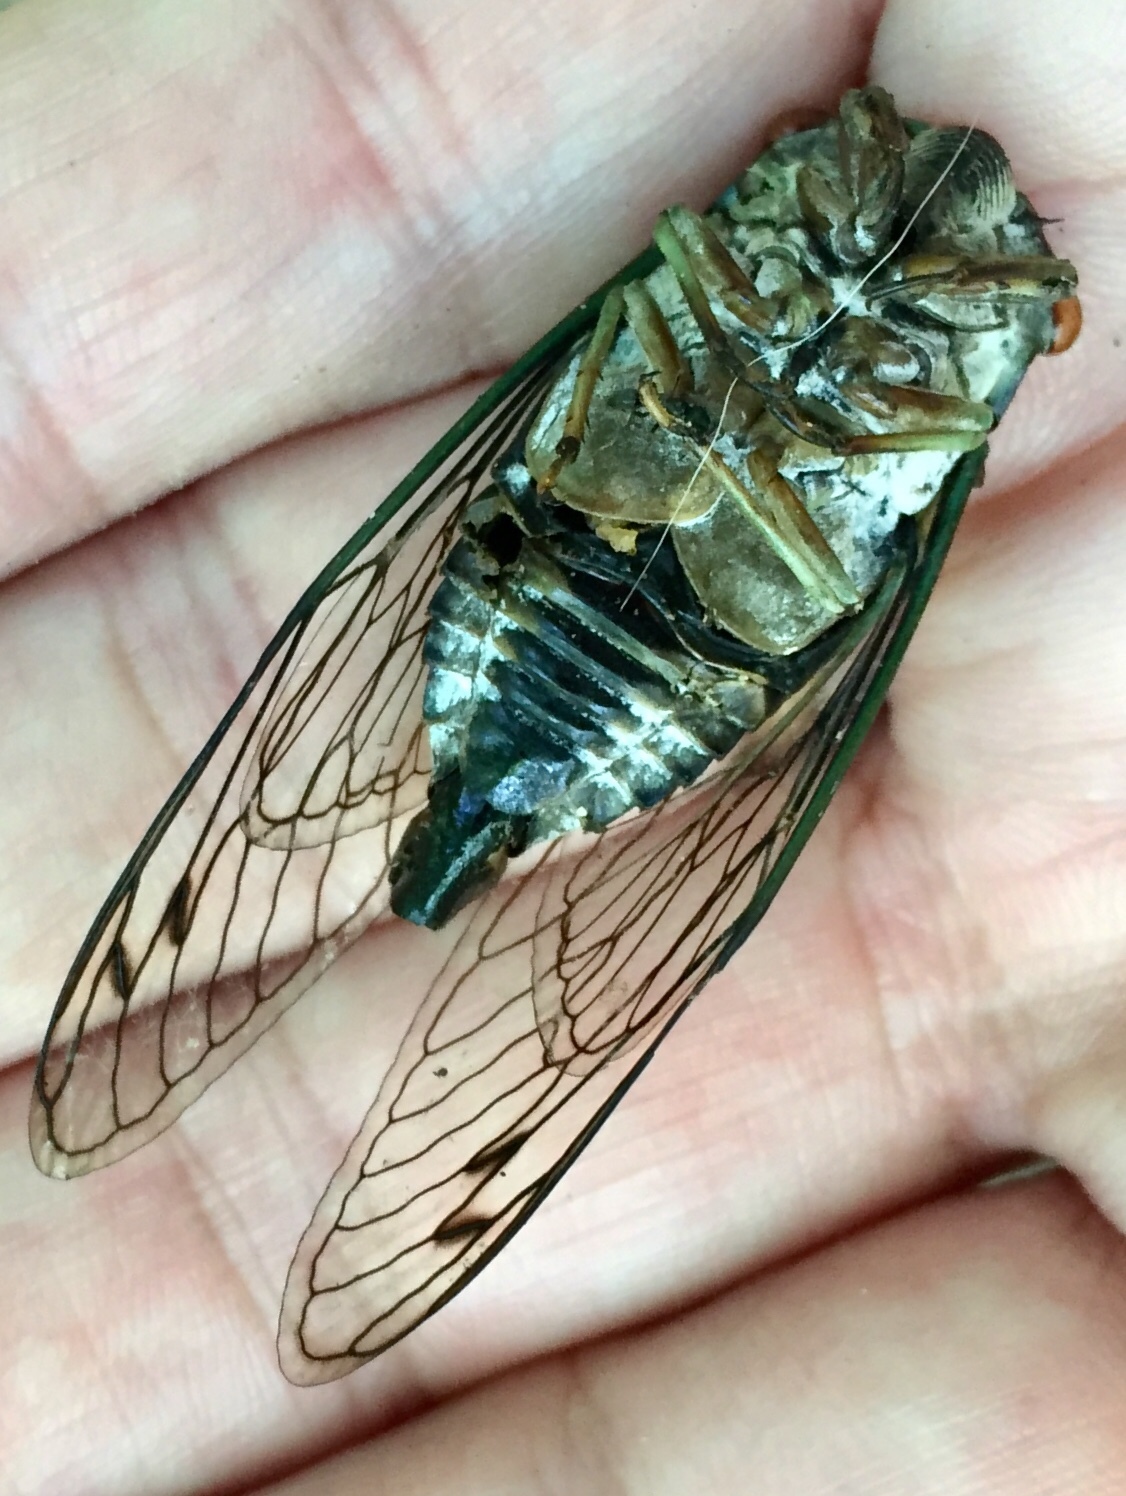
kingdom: Animalia
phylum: Arthropoda
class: Insecta
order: Hemiptera
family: Cicadidae
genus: Neotibicen
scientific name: Neotibicen robinsonianus
